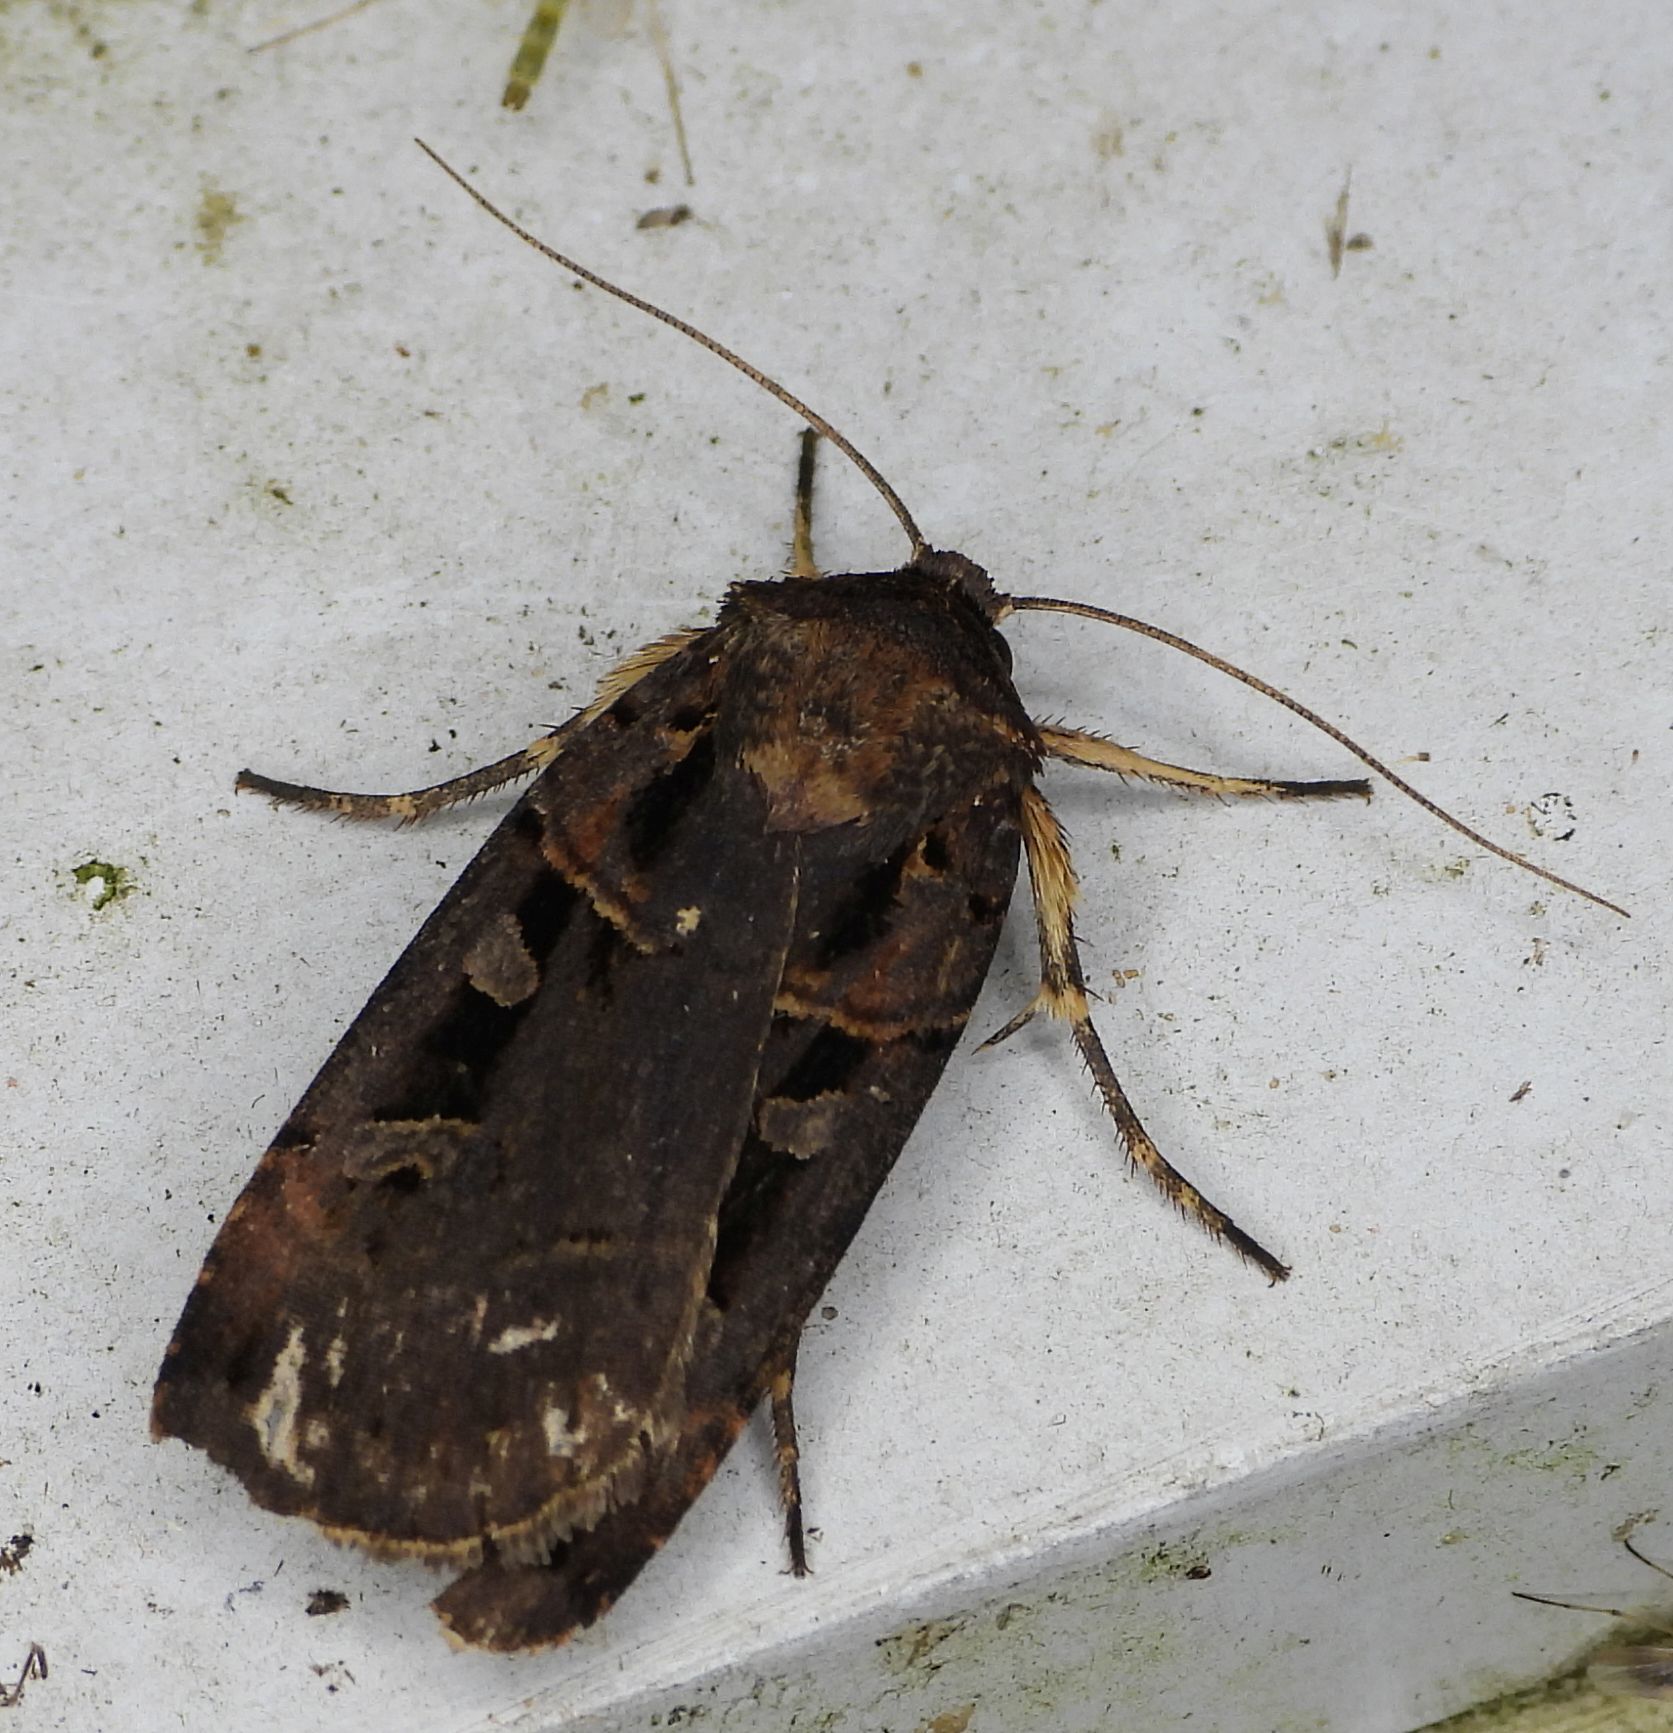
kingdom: Animalia
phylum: Arthropoda
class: Insecta
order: Lepidoptera
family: Noctuidae
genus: Pseudohermonassa
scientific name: Pseudohermonassa bicarnea
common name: Pink spotted dart
